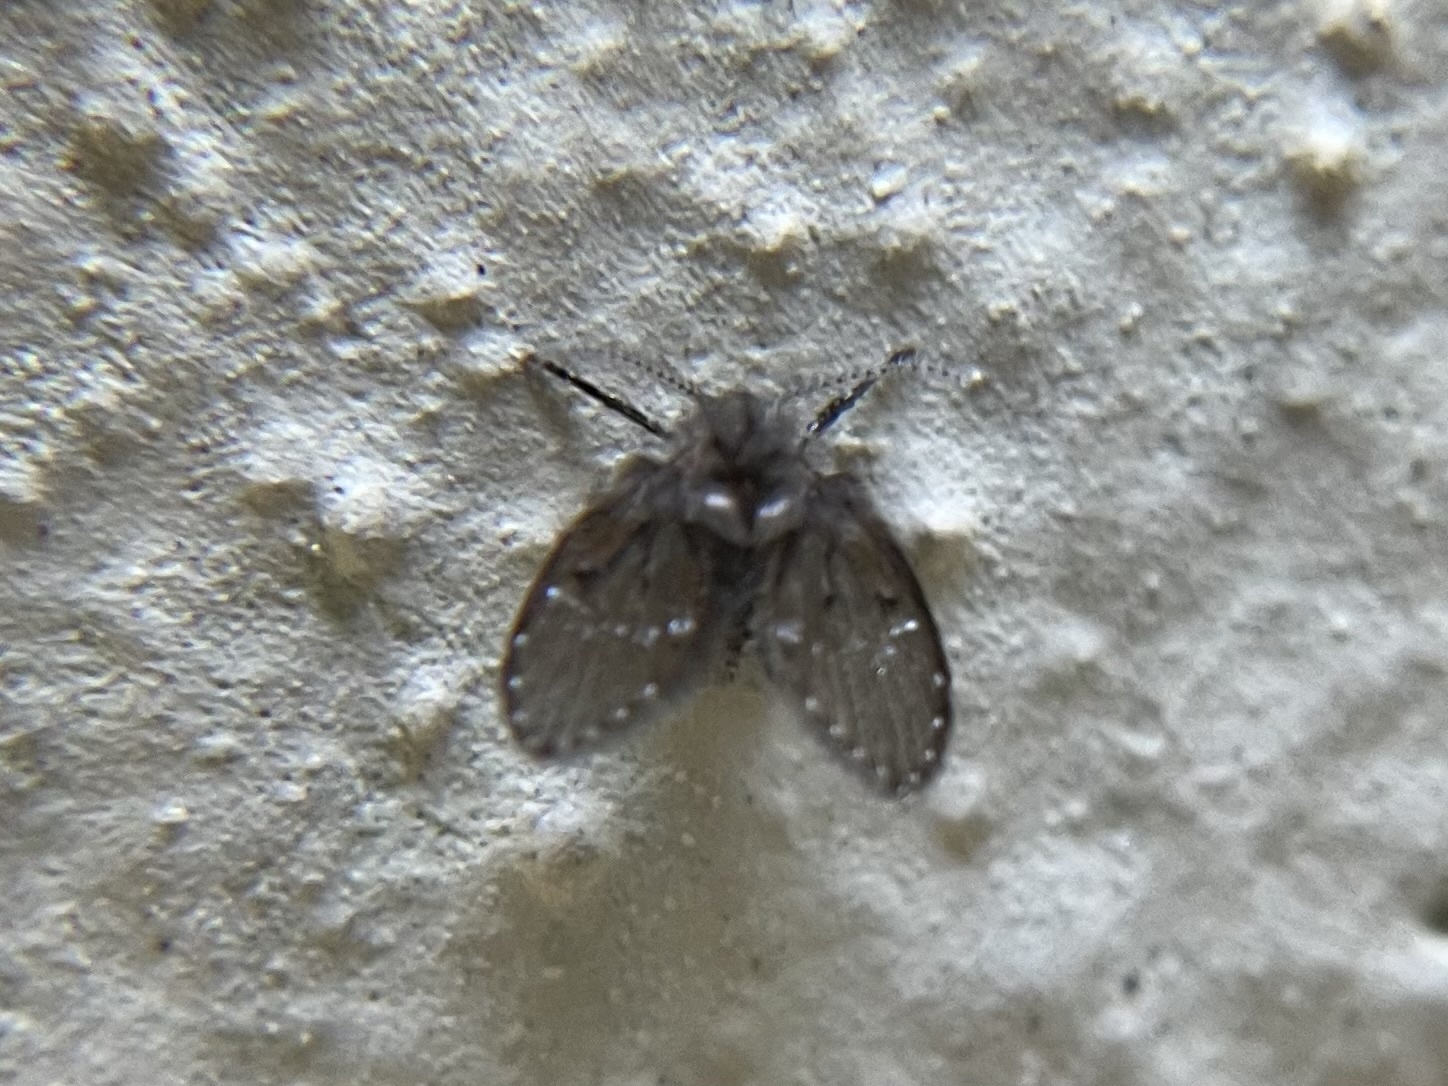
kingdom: Animalia
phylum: Arthropoda
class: Insecta
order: Diptera
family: Psychodidae
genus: Clogmia
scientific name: Clogmia albipunctatus
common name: White-spotted moth fly
